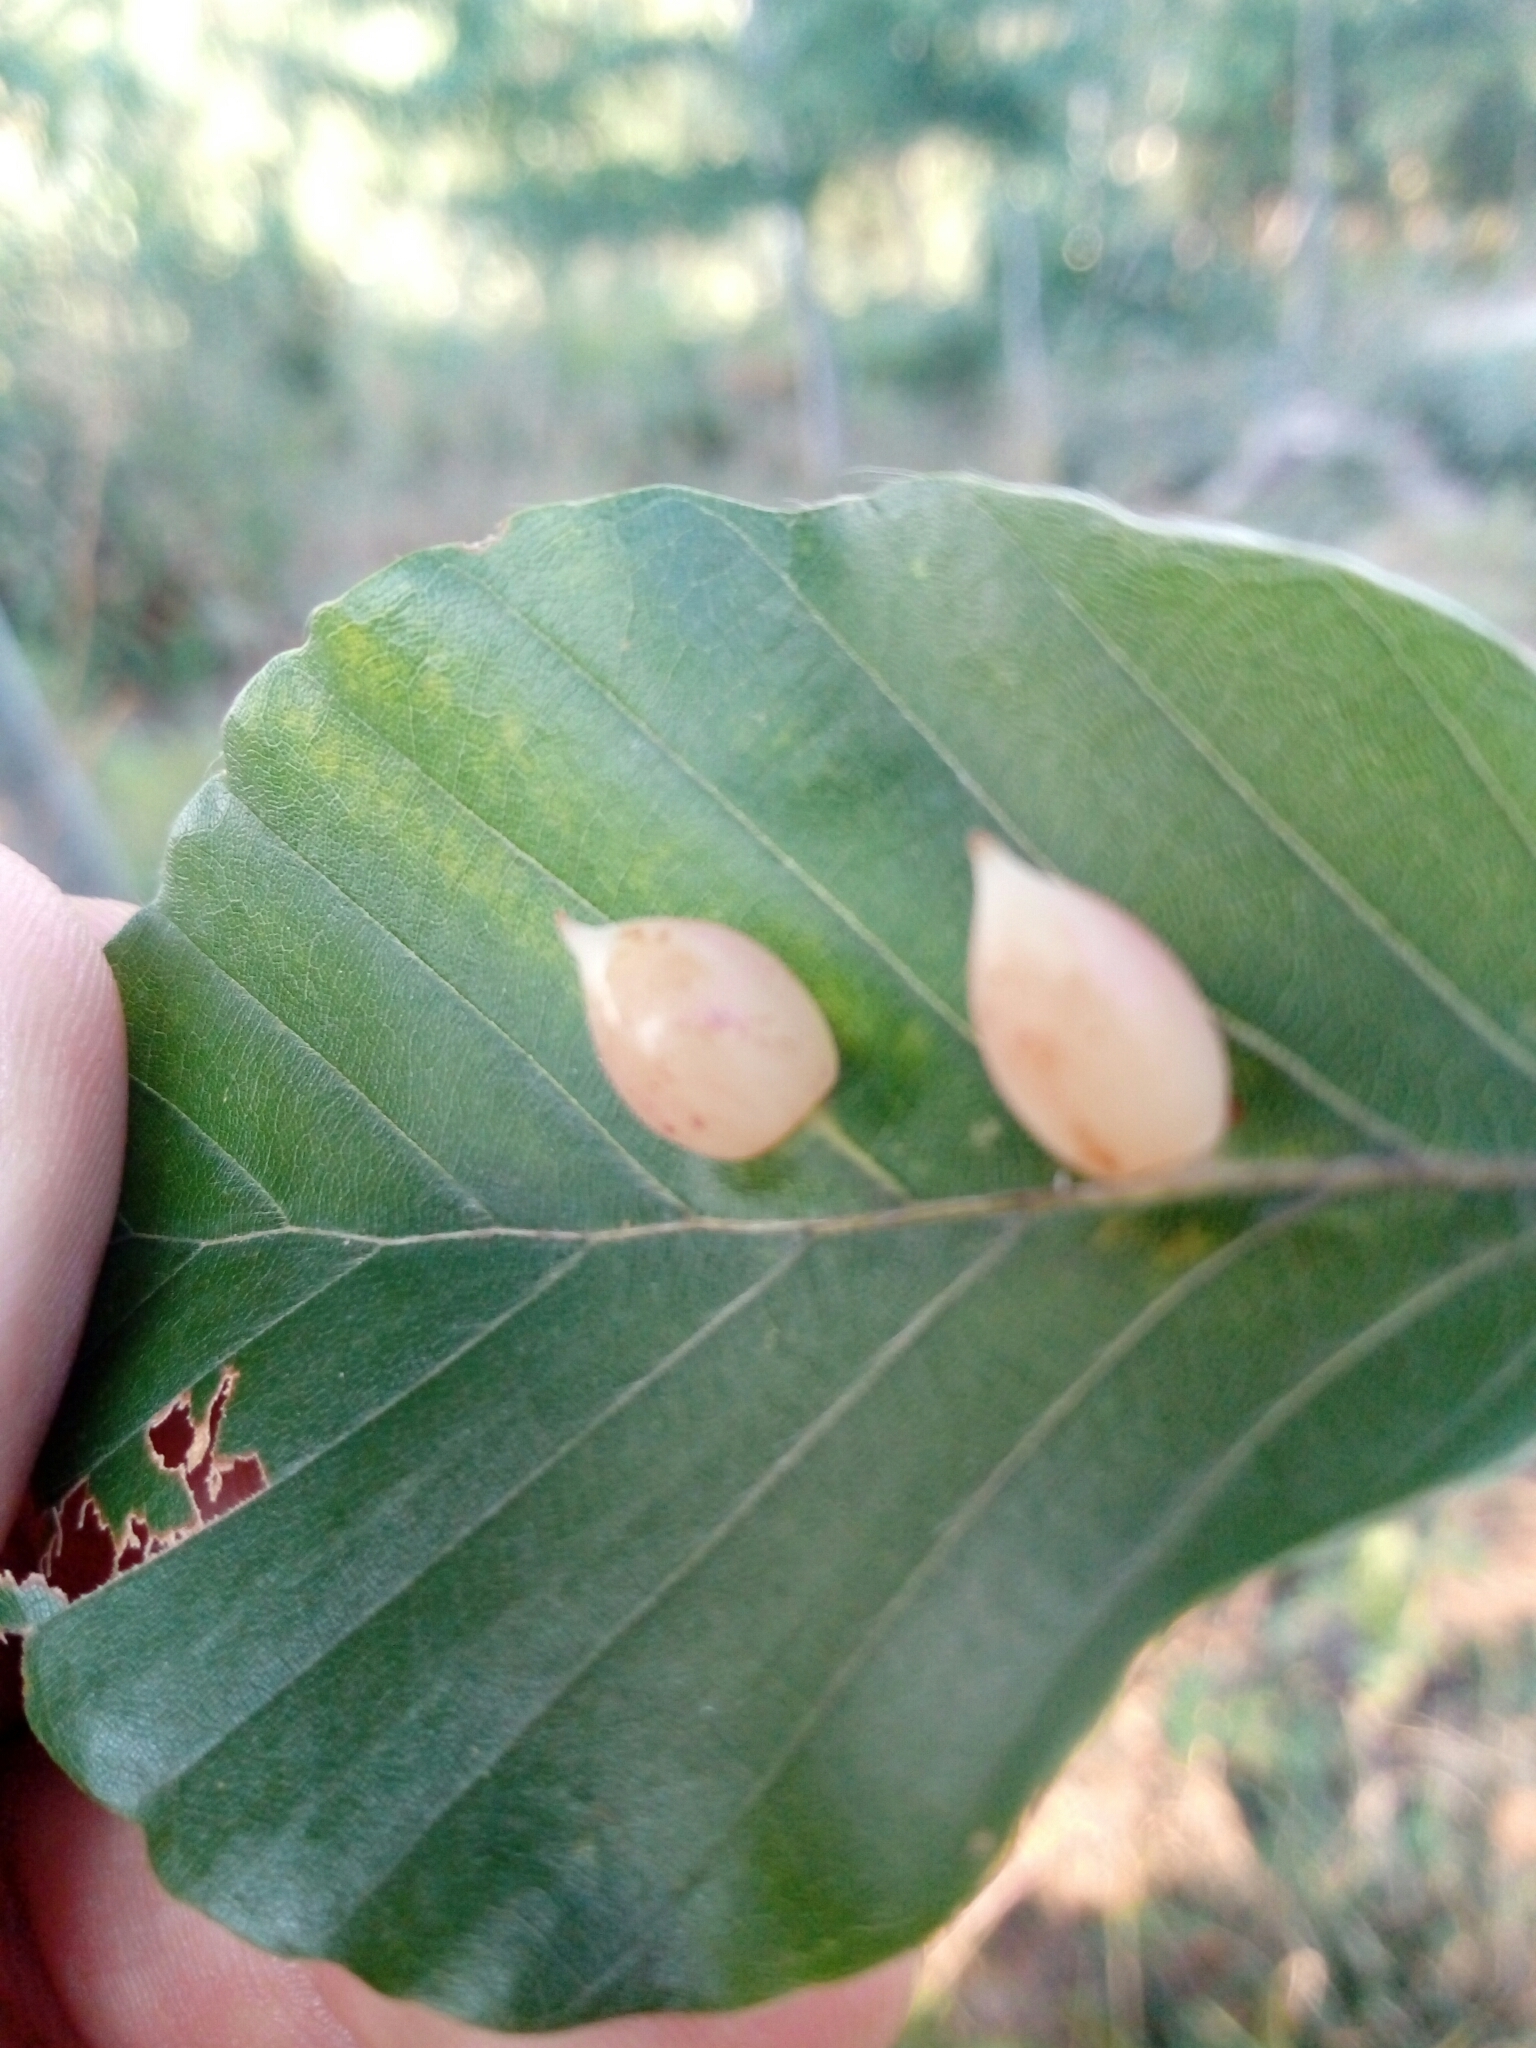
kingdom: Animalia
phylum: Arthropoda
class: Insecta
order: Diptera
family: Cecidomyiidae
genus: Mikiola
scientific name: Mikiola fagi
